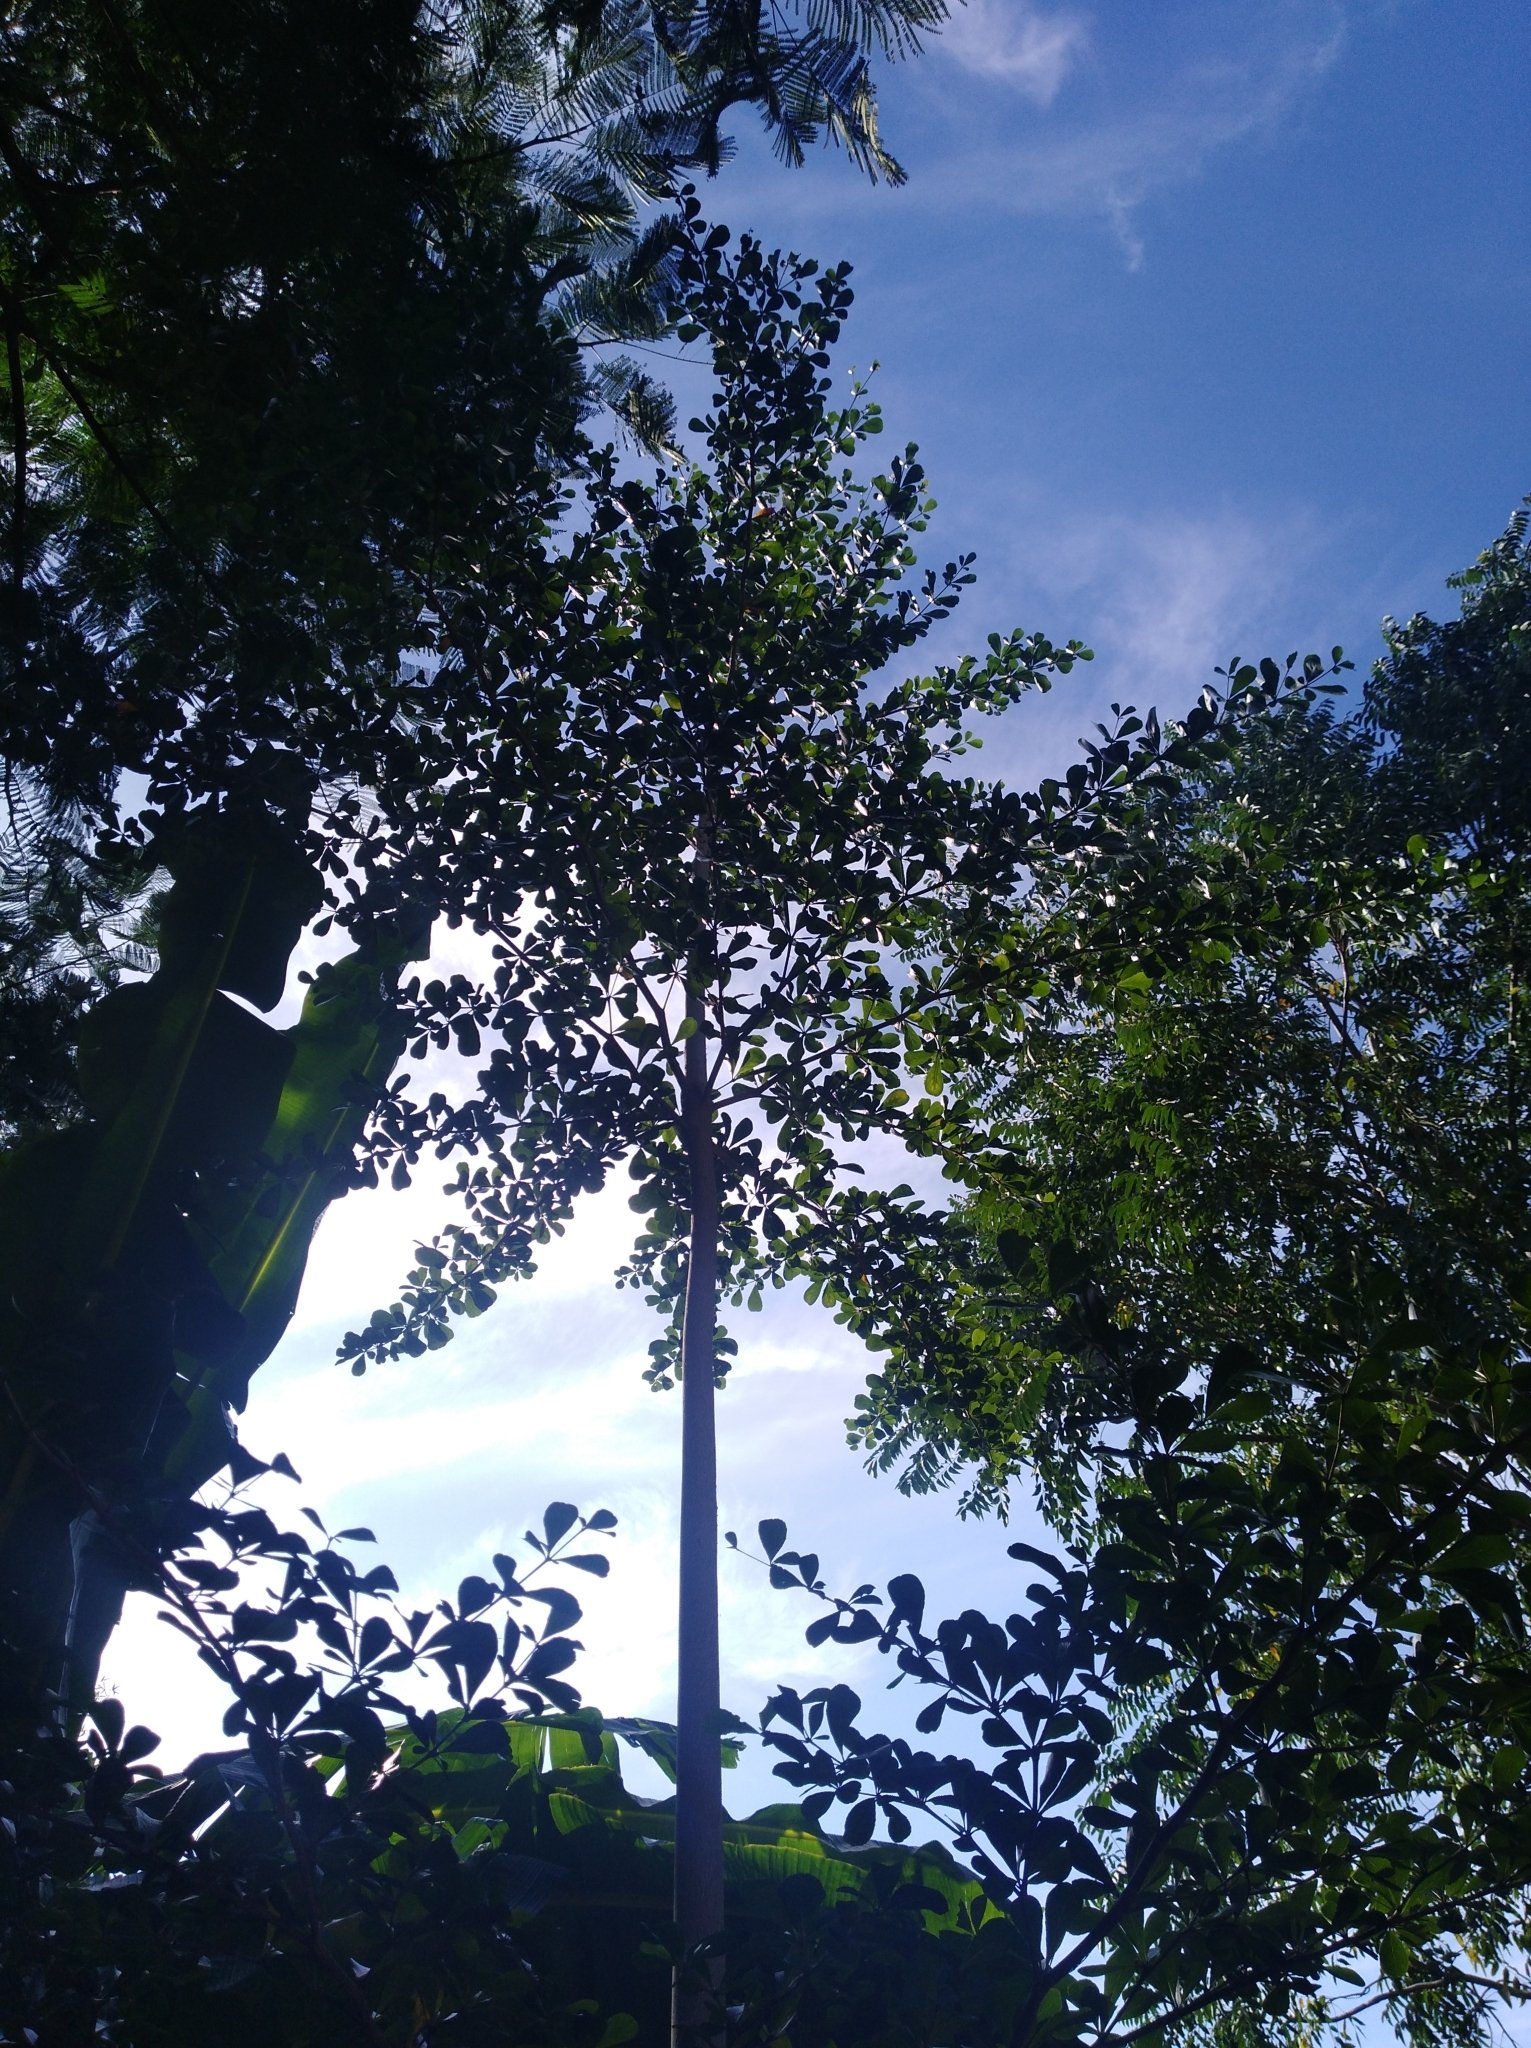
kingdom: Plantae
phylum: Tracheophyta
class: Magnoliopsida
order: Myrtales
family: Combretaceae
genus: Terminalia
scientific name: Terminalia buceras
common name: Black-olive
